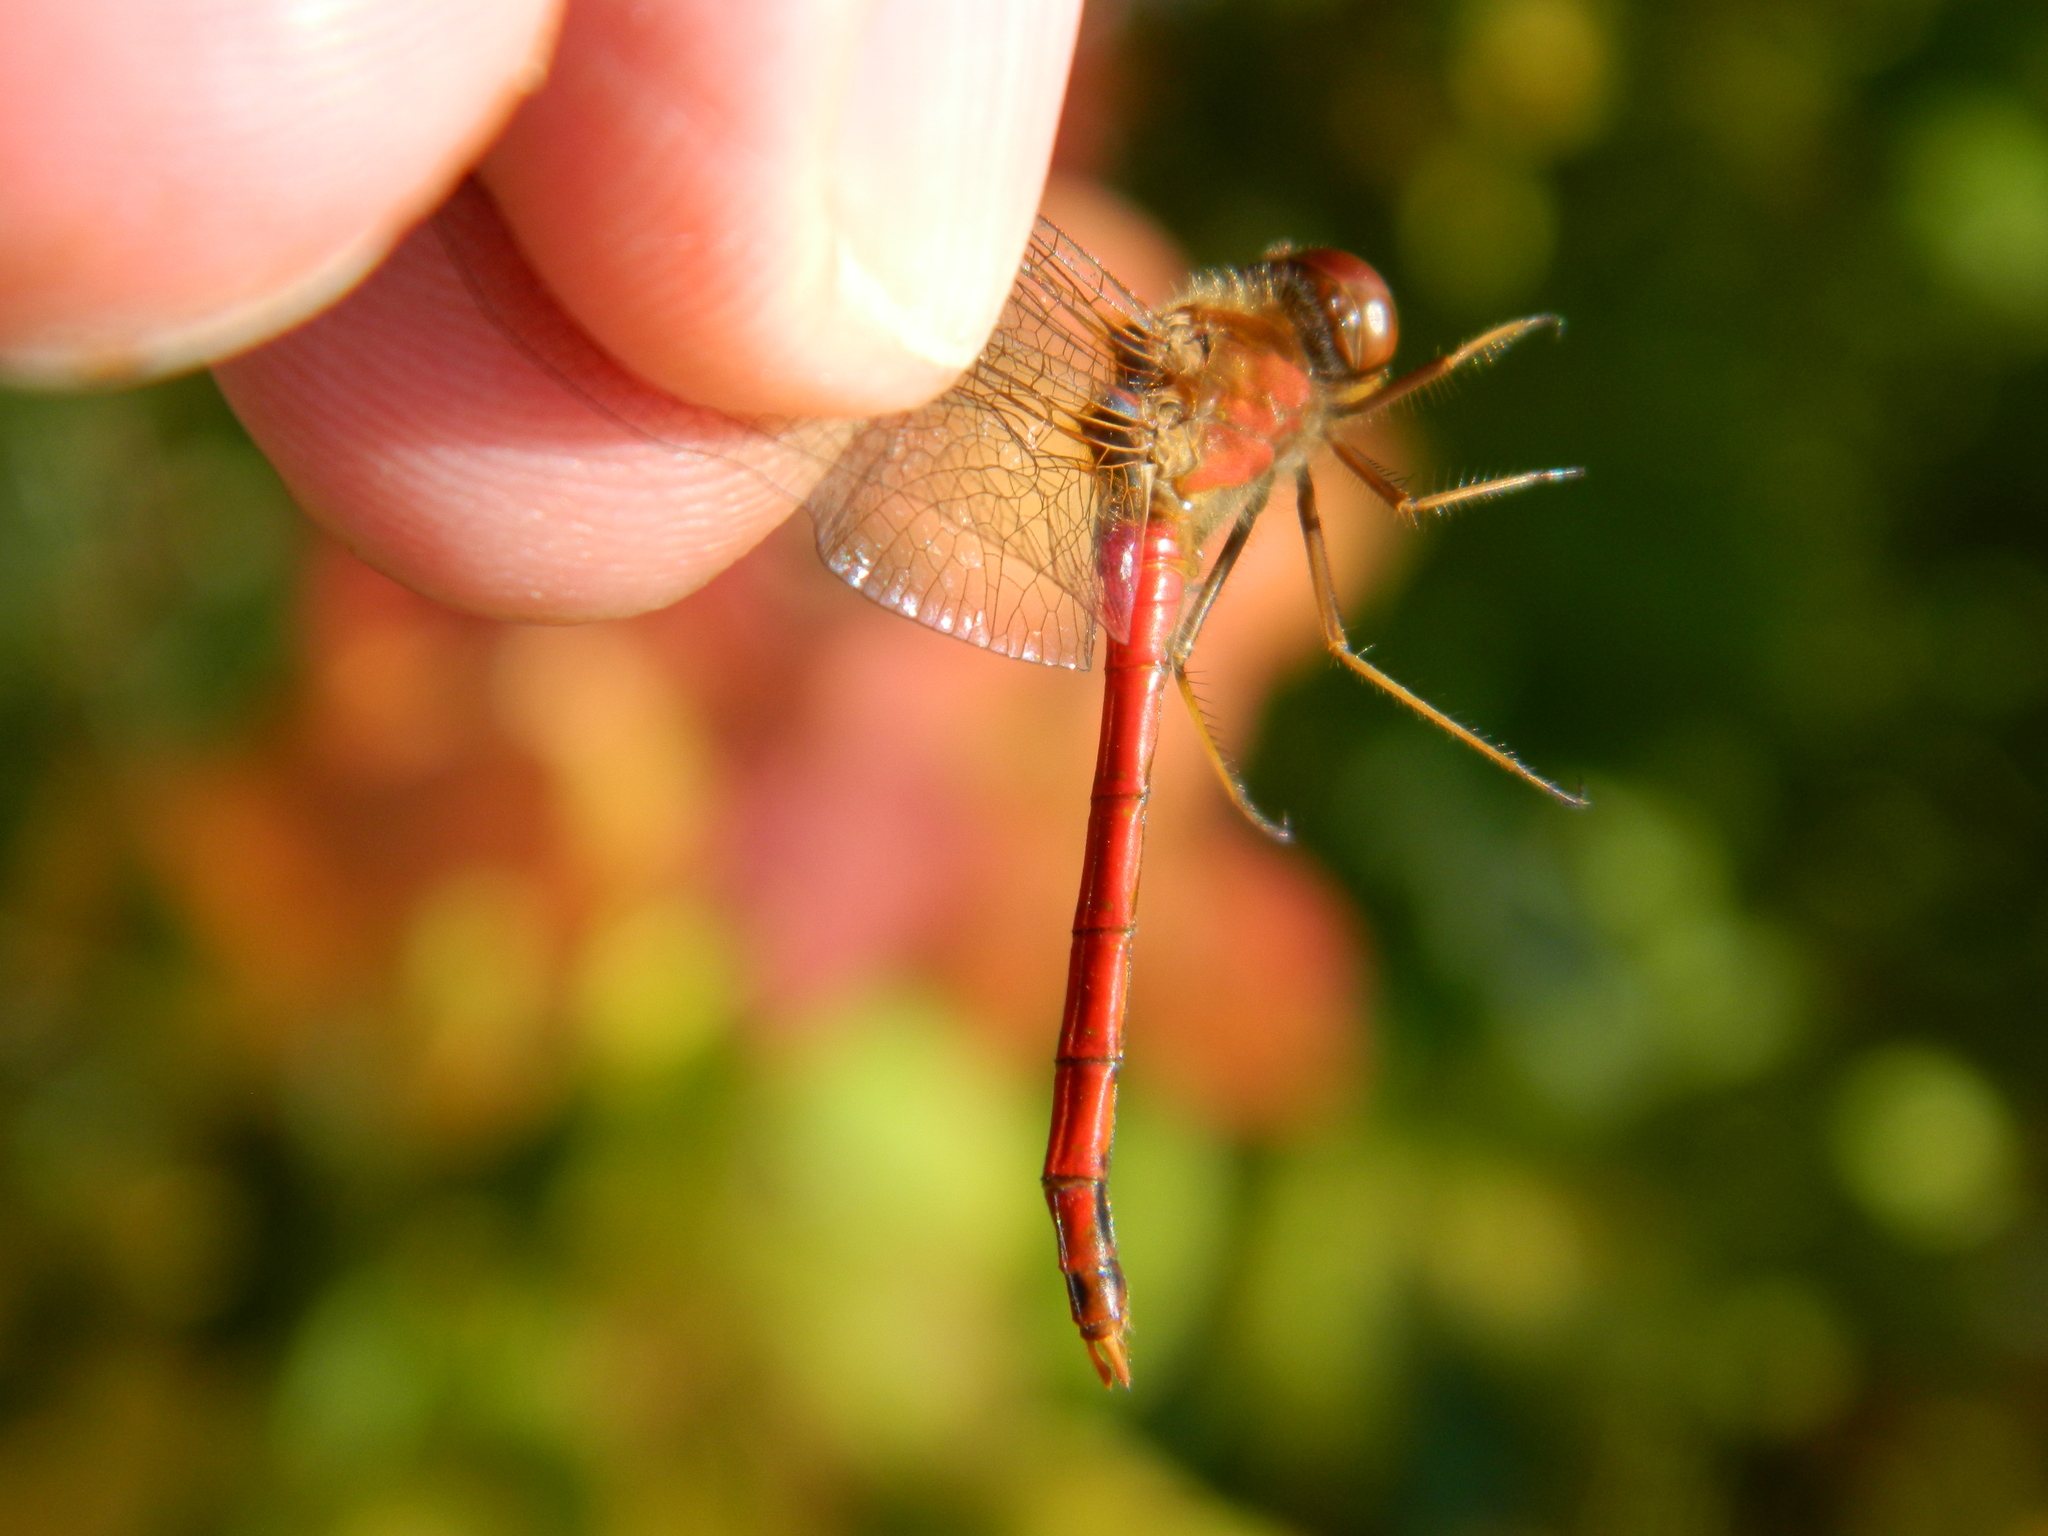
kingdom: Animalia
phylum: Arthropoda
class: Insecta
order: Odonata
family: Libellulidae
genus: Sympetrum
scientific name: Sympetrum vicinum
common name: Autumn meadowhawk
